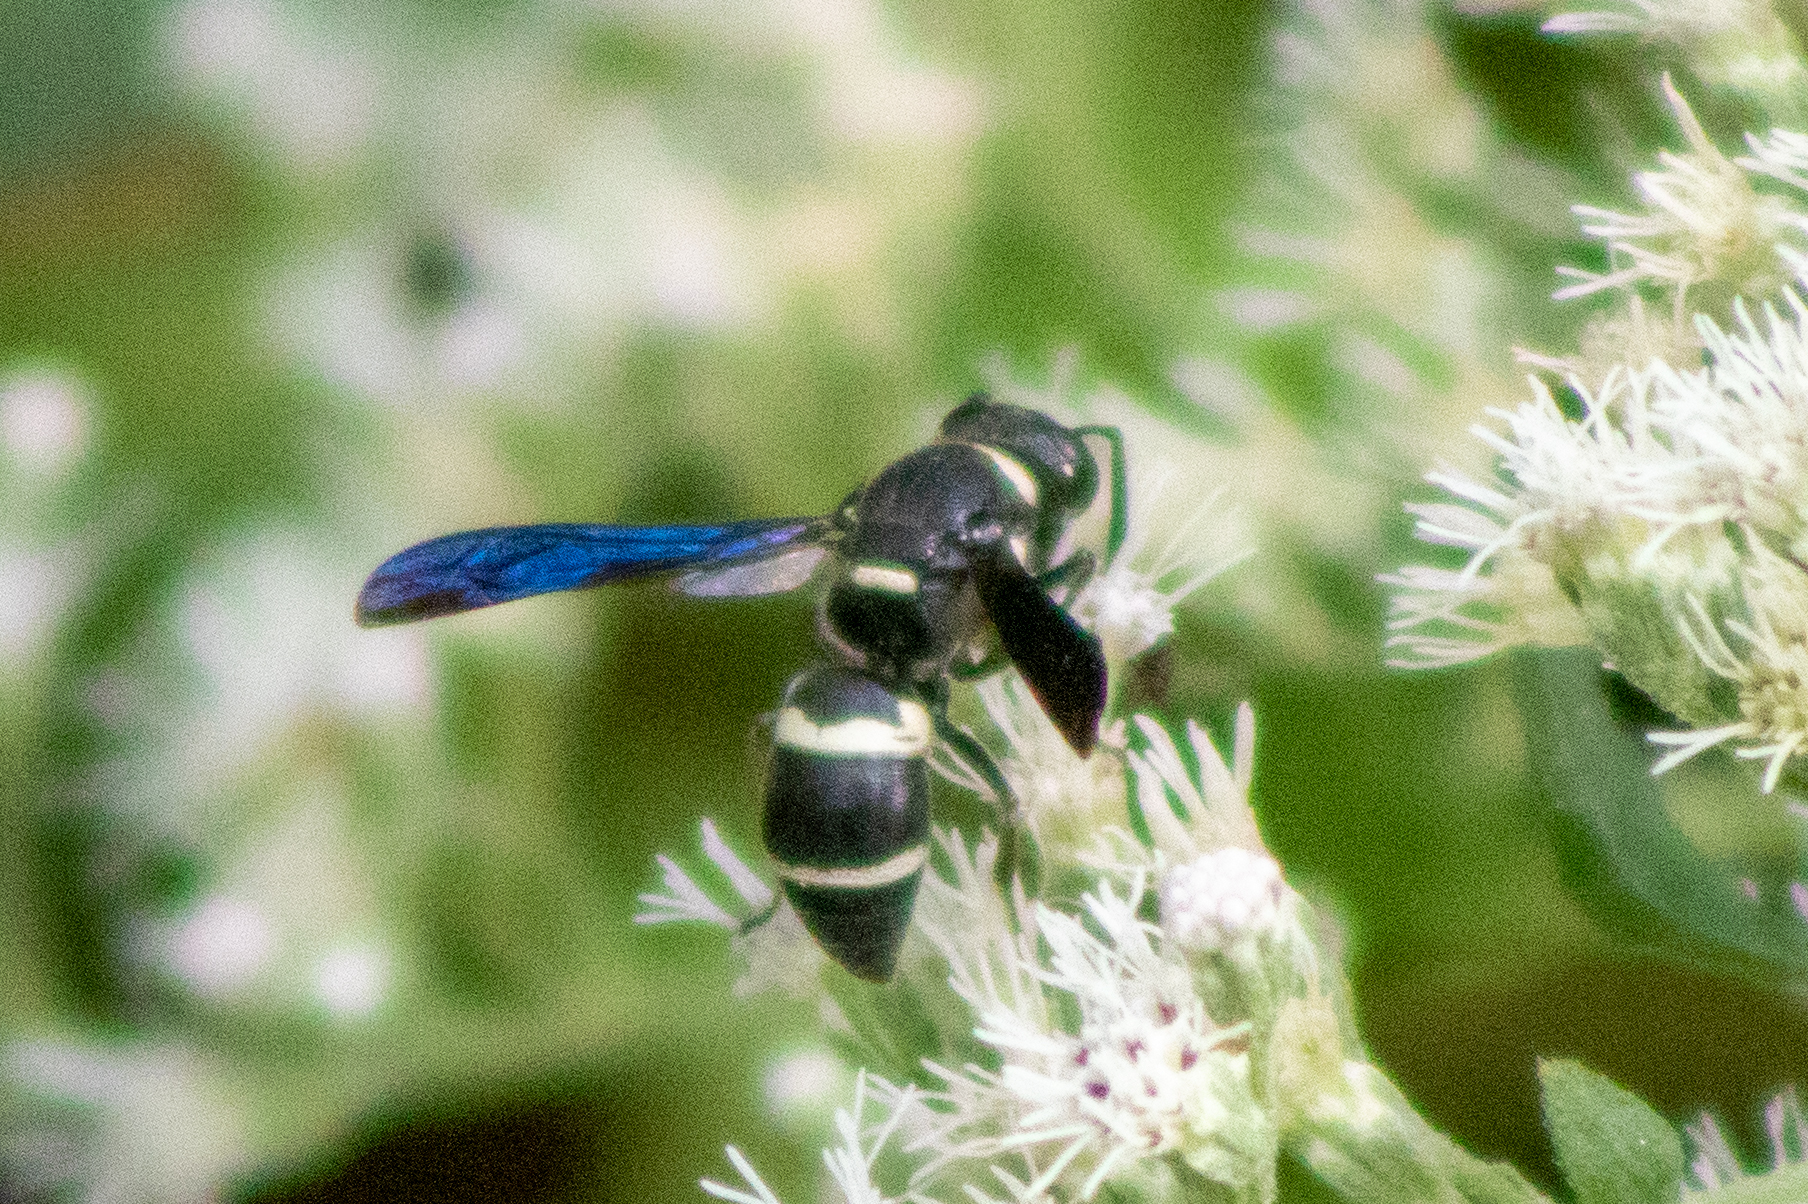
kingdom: Animalia
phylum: Arthropoda
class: Insecta
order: Hymenoptera
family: Eumenidae
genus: Euodynerus
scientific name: Euodynerus megaera
